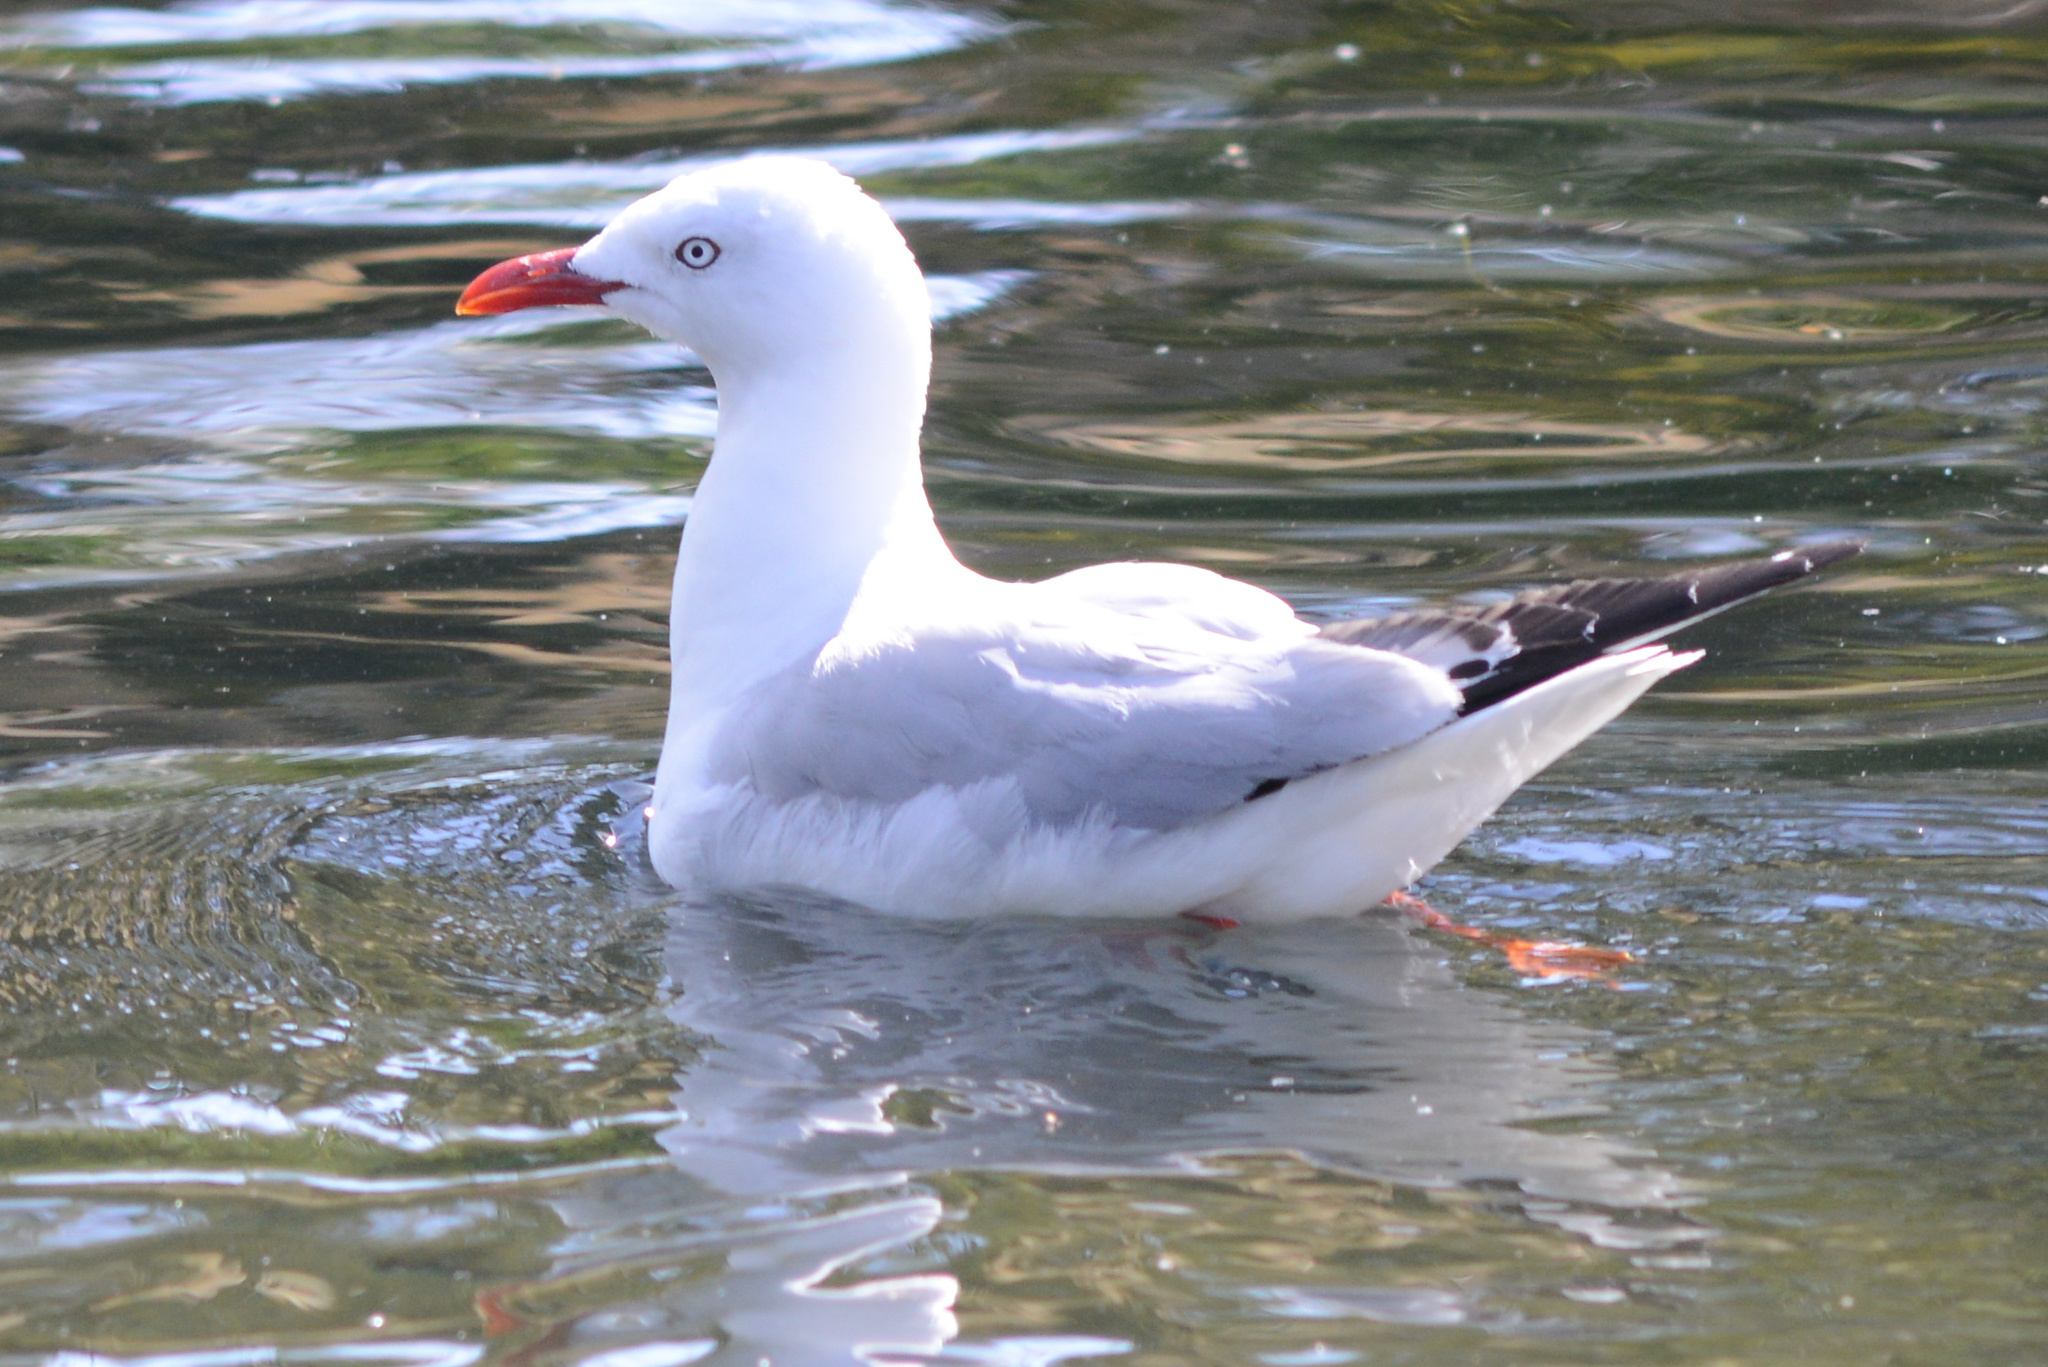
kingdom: Animalia
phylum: Chordata
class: Aves
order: Charadriiformes
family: Laridae
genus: Chroicocephalus
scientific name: Chroicocephalus novaehollandiae
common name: Silver gull
